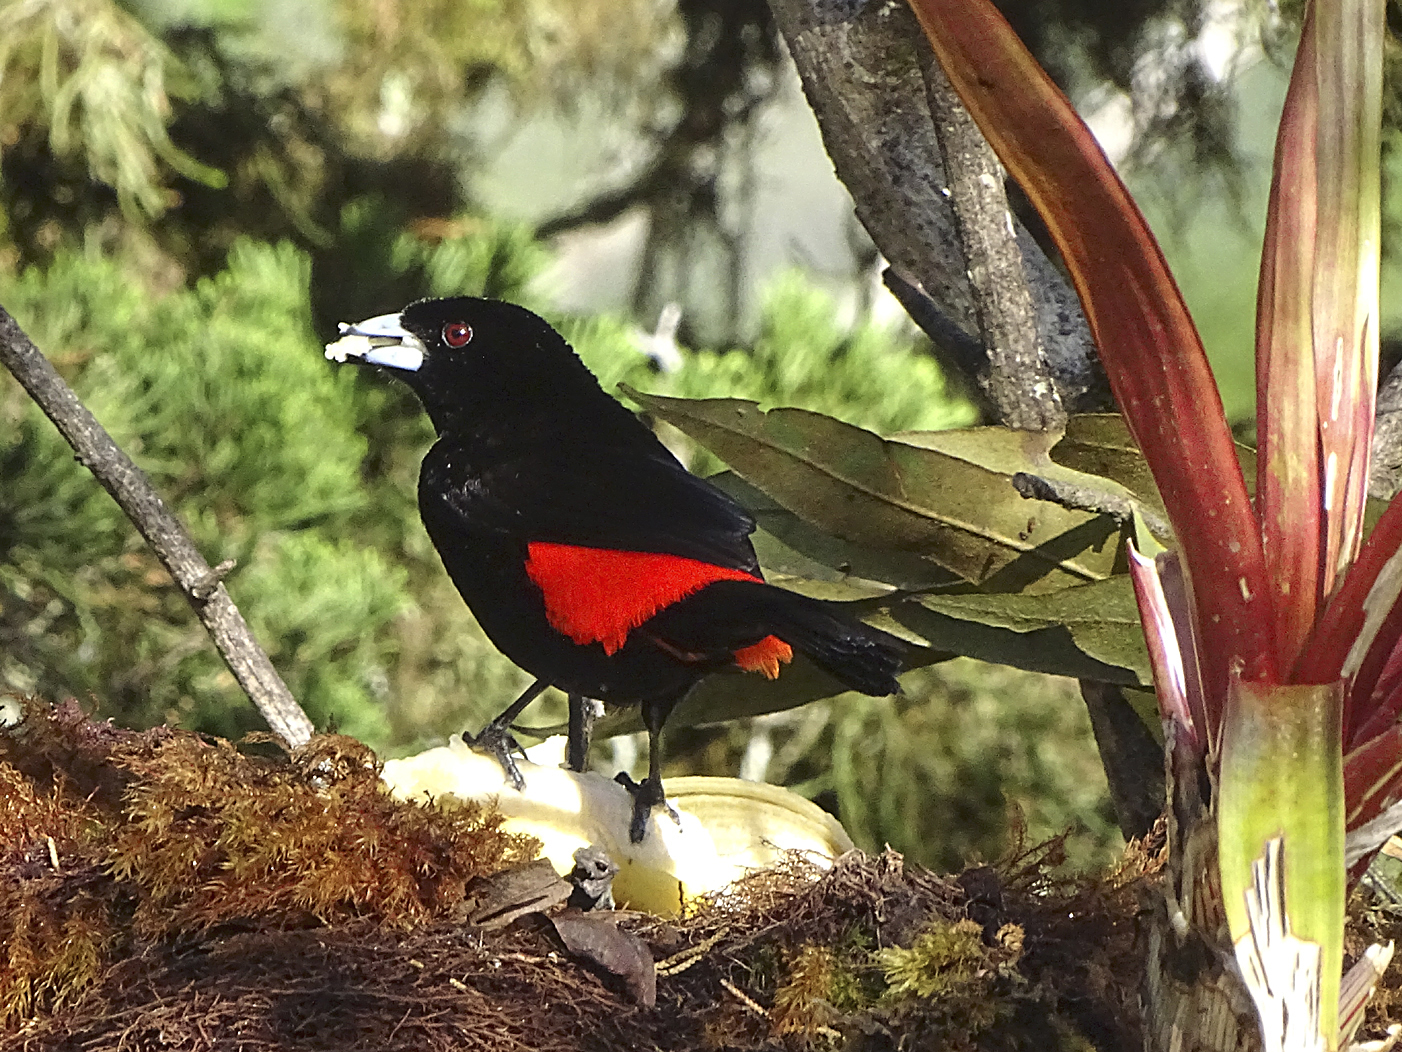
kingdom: Animalia
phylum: Chordata
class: Aves
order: Passeriformes
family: Thraupidae
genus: Ramphocelus
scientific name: Ramphocelus passerinii
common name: Passerini's tanager
